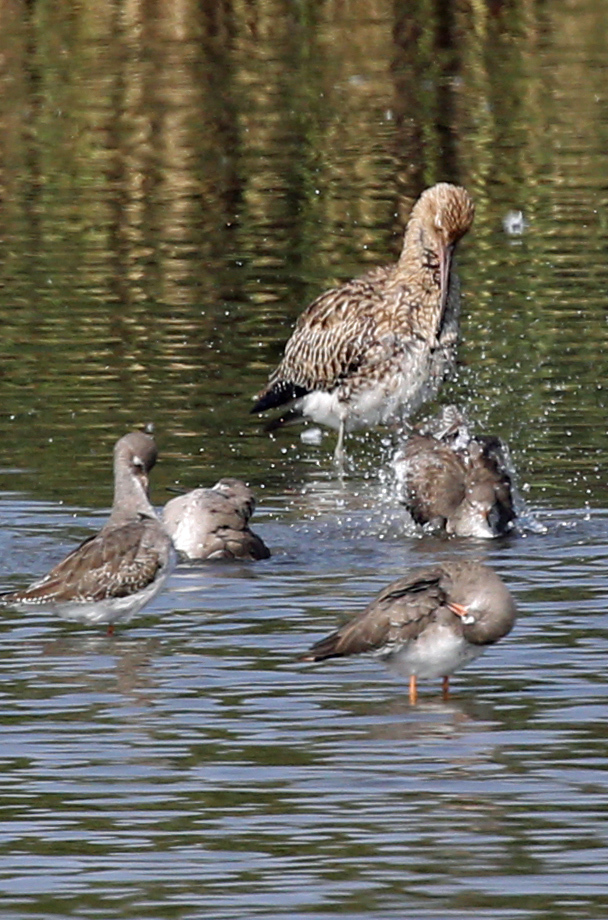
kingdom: Animalia
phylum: Chordata
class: Aves
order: Charadriiformes
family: Scolopacidae
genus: Numenius
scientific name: Numenius arquata
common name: Eurasian curlew
